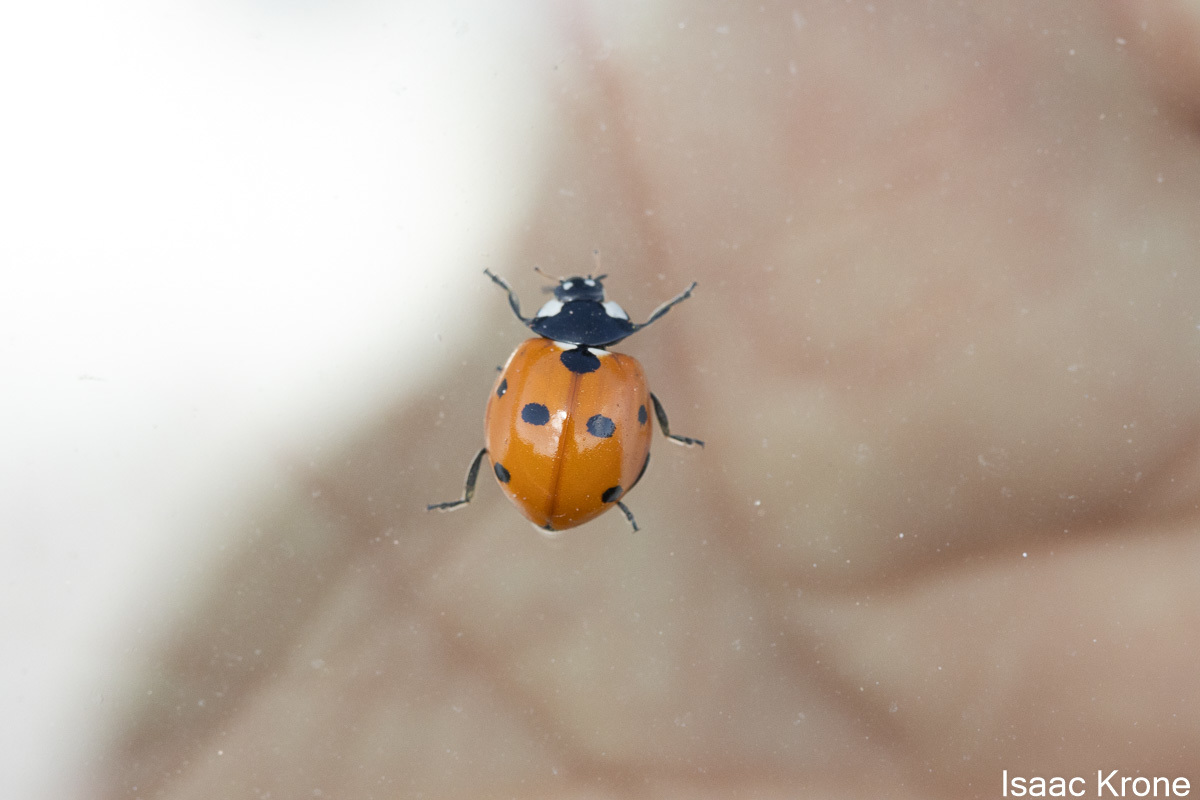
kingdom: Animalia
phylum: Arthropoda
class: Insecta
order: Coleoptera
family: Coccinellidae
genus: Coccinella
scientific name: Coccinella septempunctata
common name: Sevenspotted lady beetle
